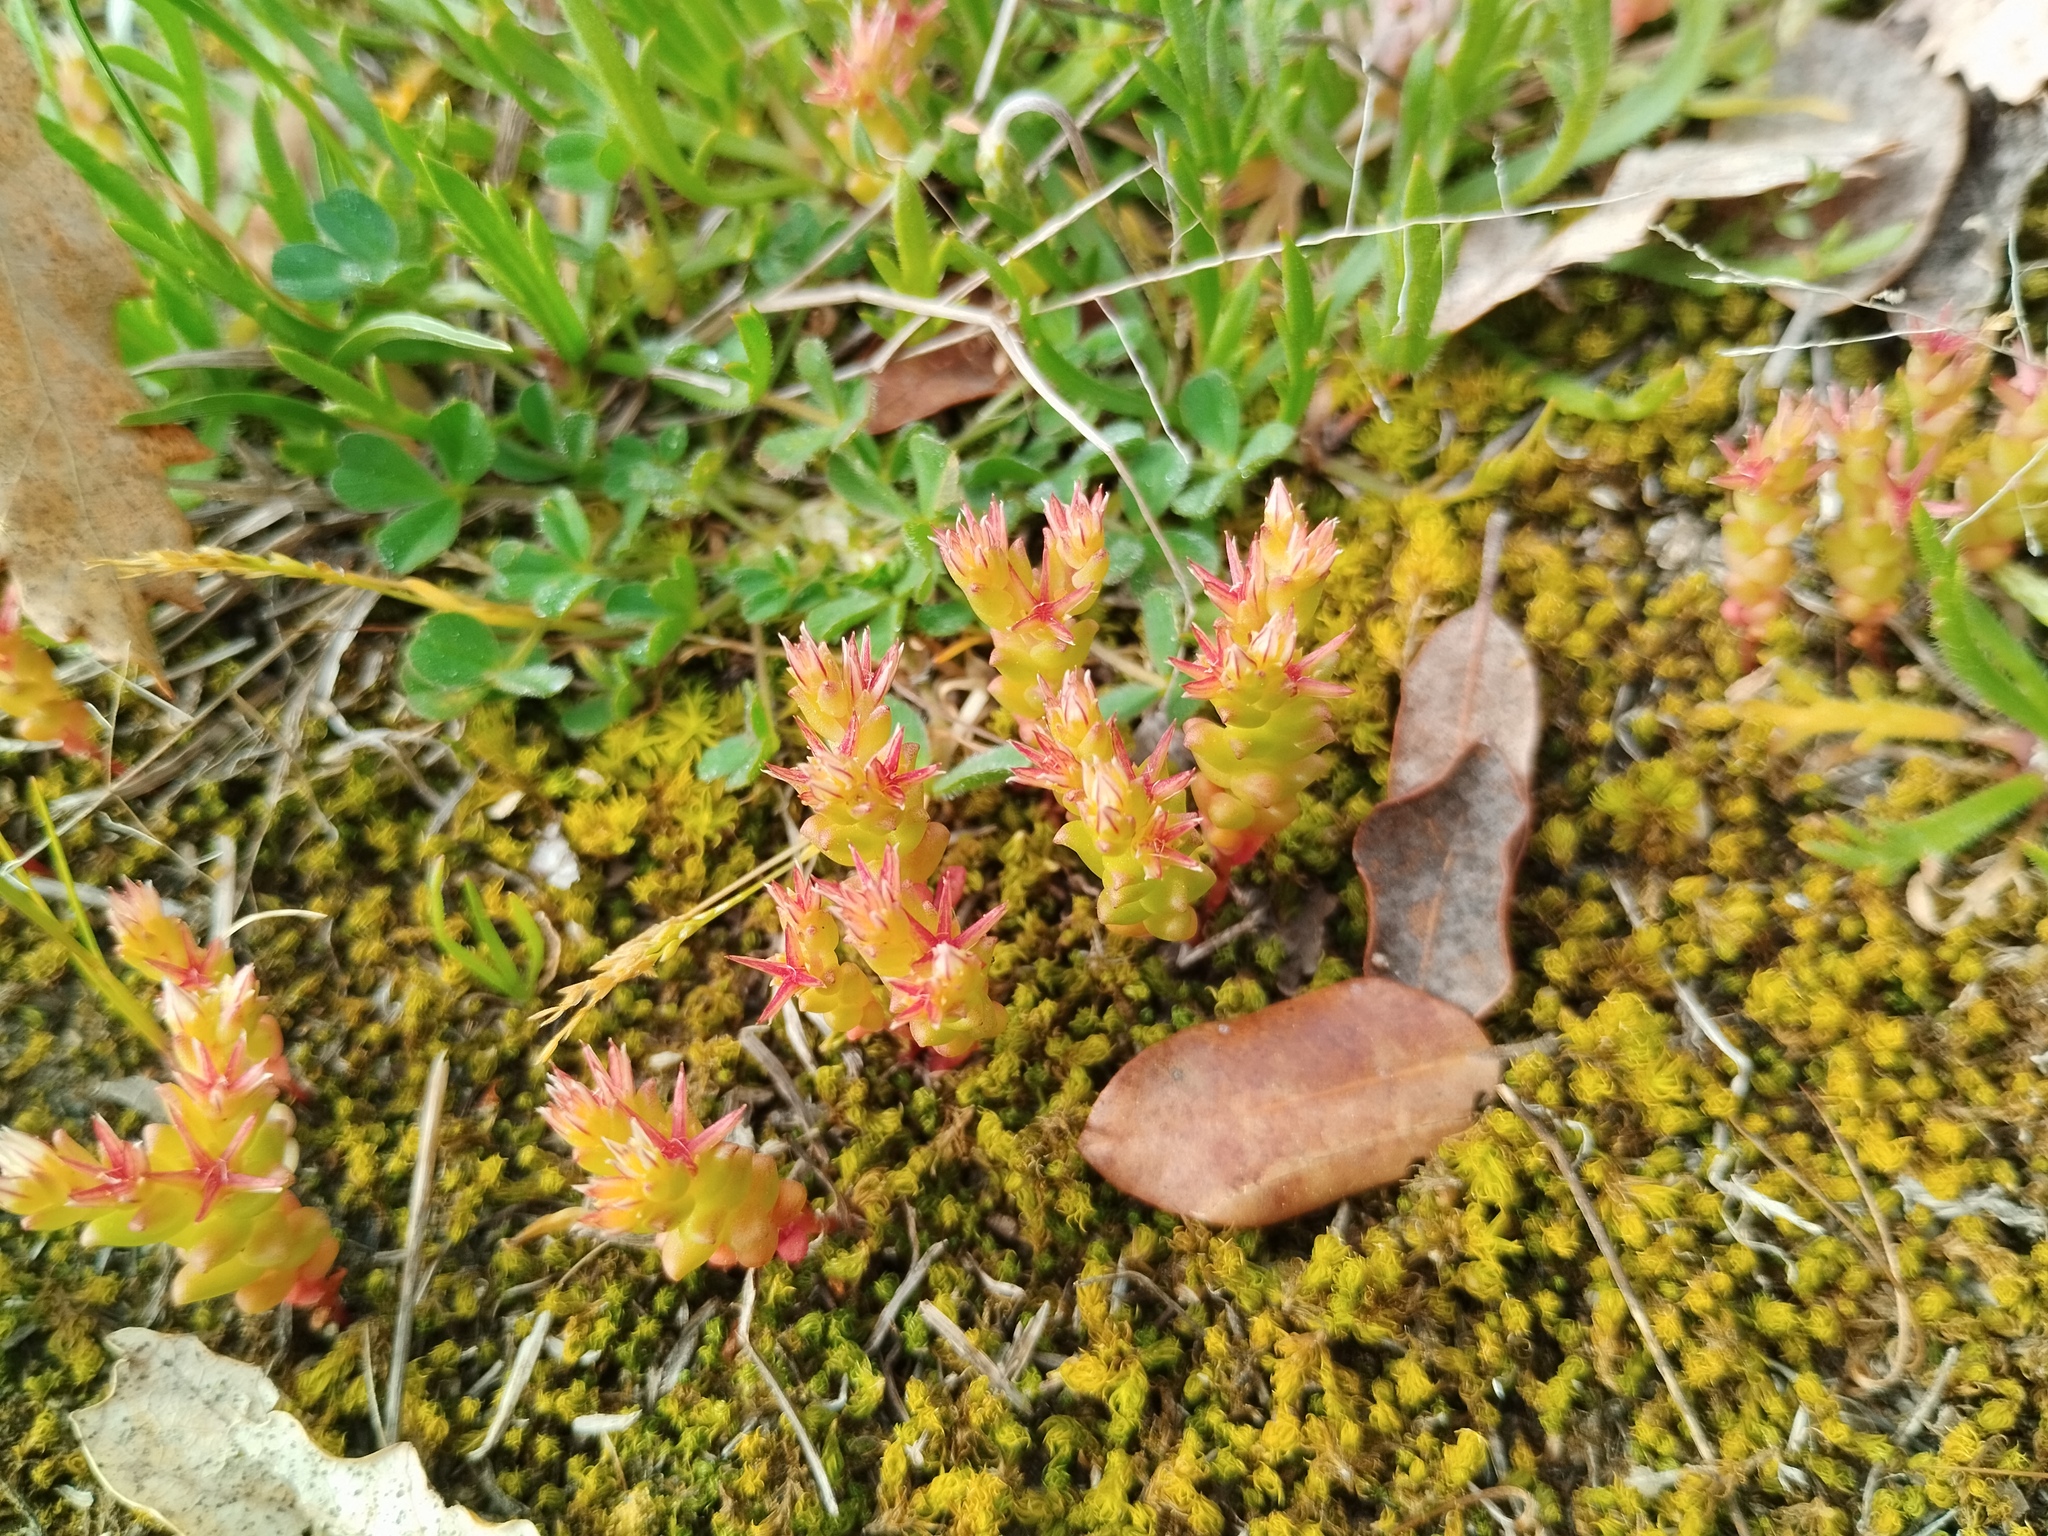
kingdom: Plantae
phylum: Tracheophyta
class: Magnoliopsida
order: Saxifragales
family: Crassulaceae
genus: Sedum
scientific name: Sedum cespitosum
